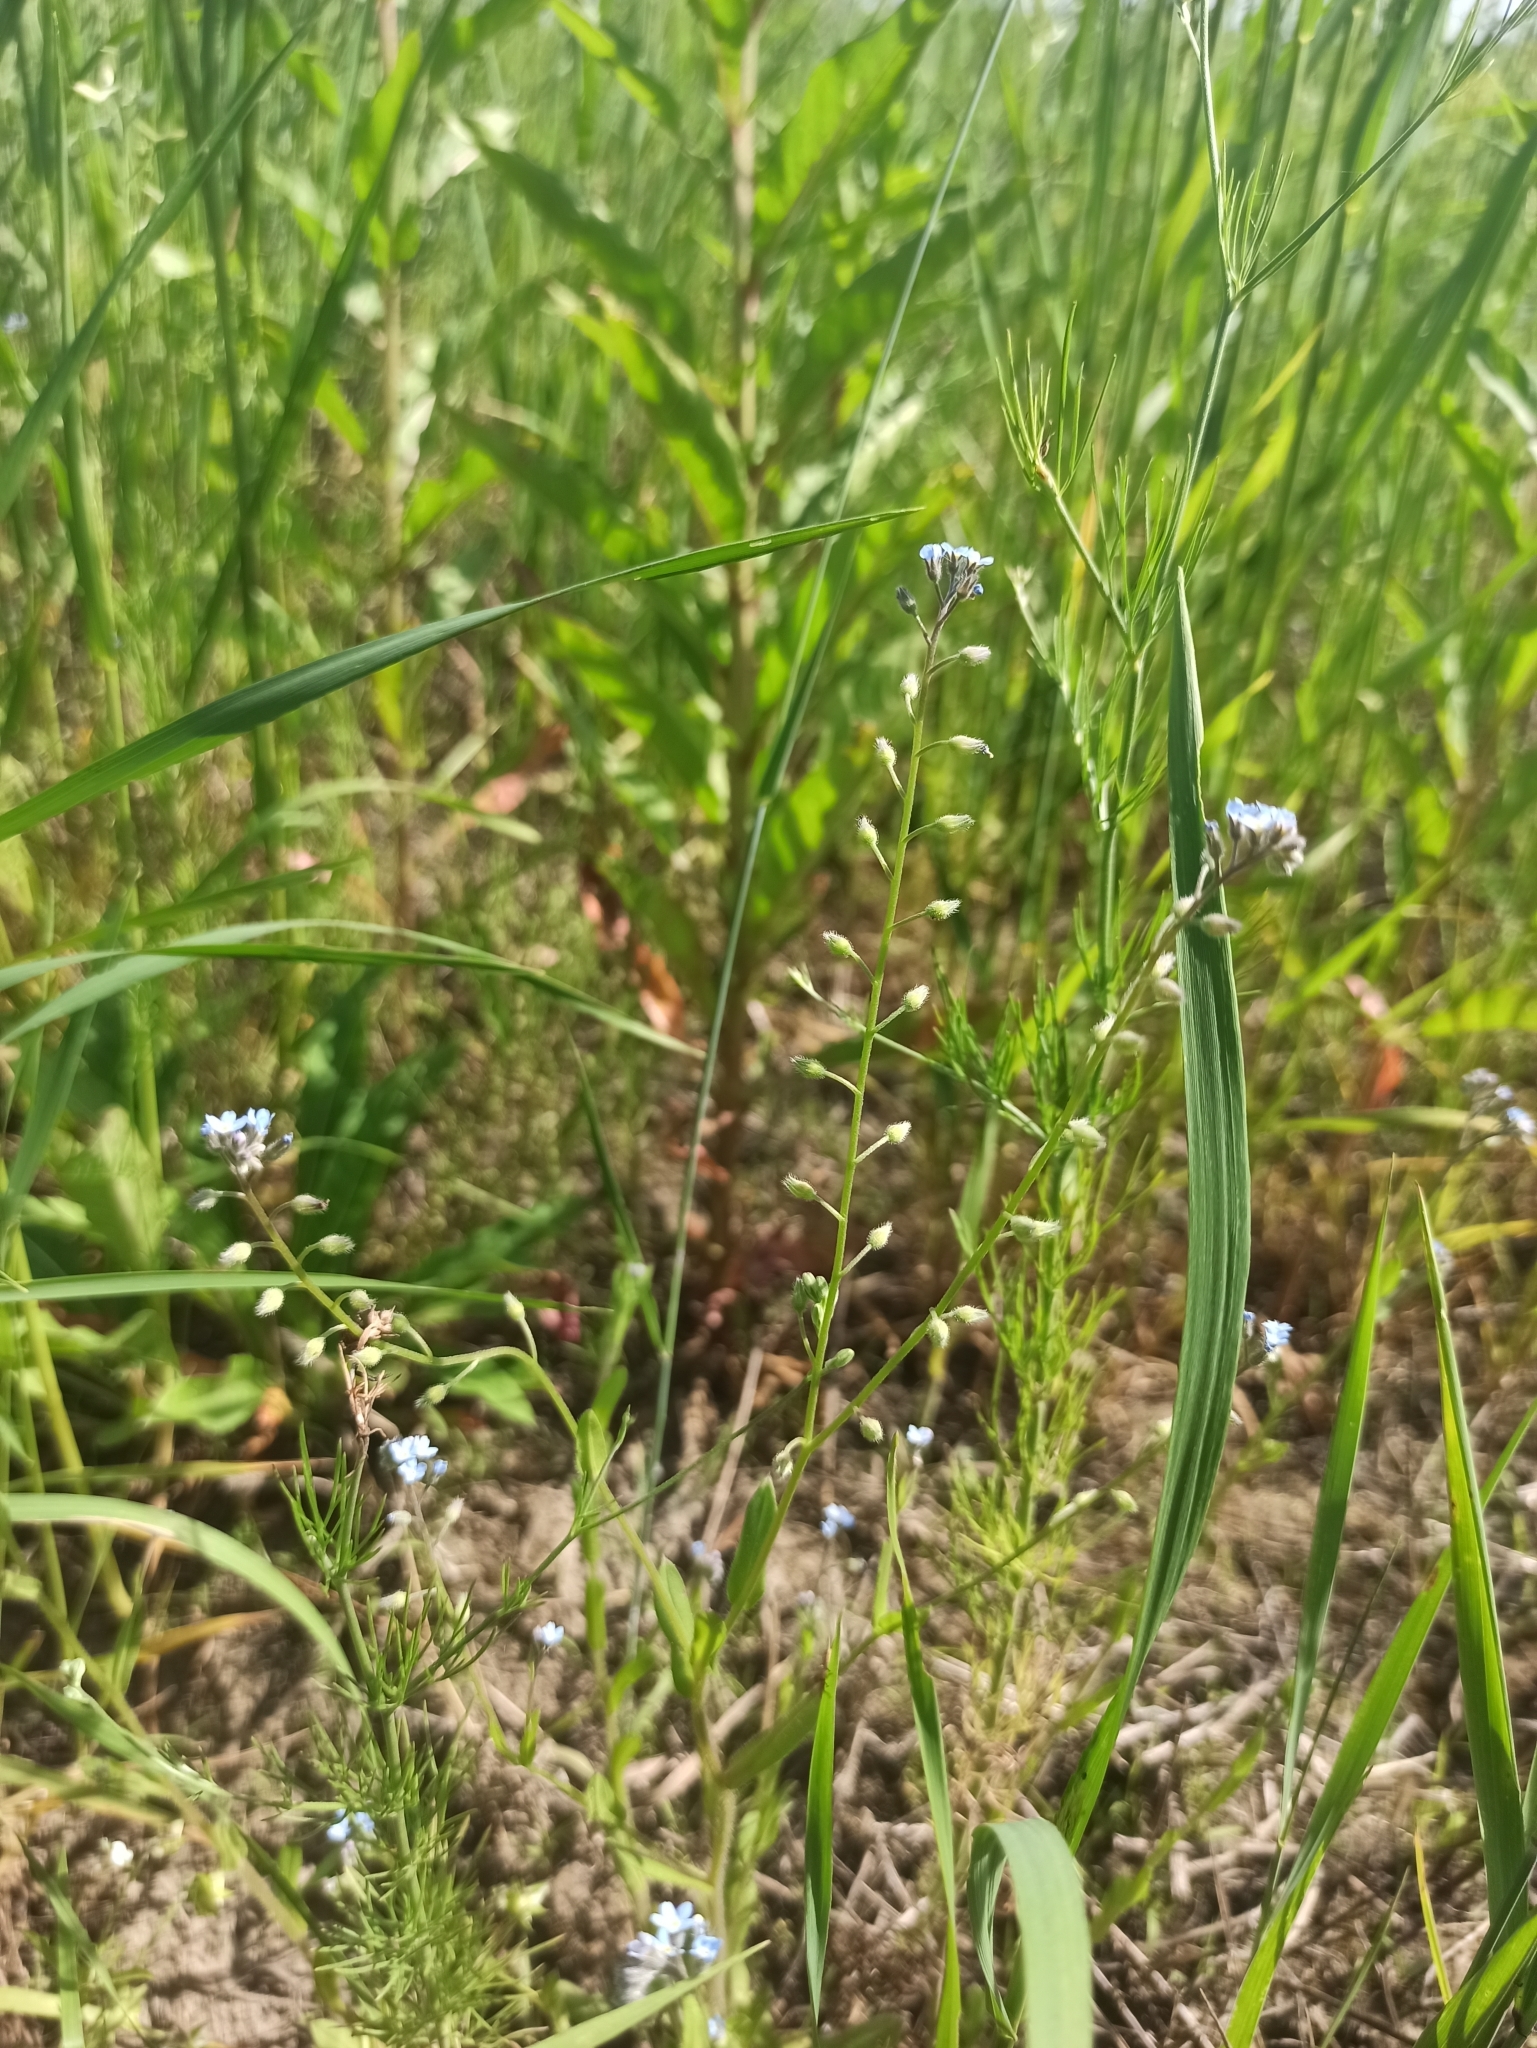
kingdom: Plantae
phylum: Tracheophyta
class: Magnoliopsida
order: Boraginales
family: Boraginaceae
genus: Myosotis
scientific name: Myosotis arvensis
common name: Field forget-me-not
